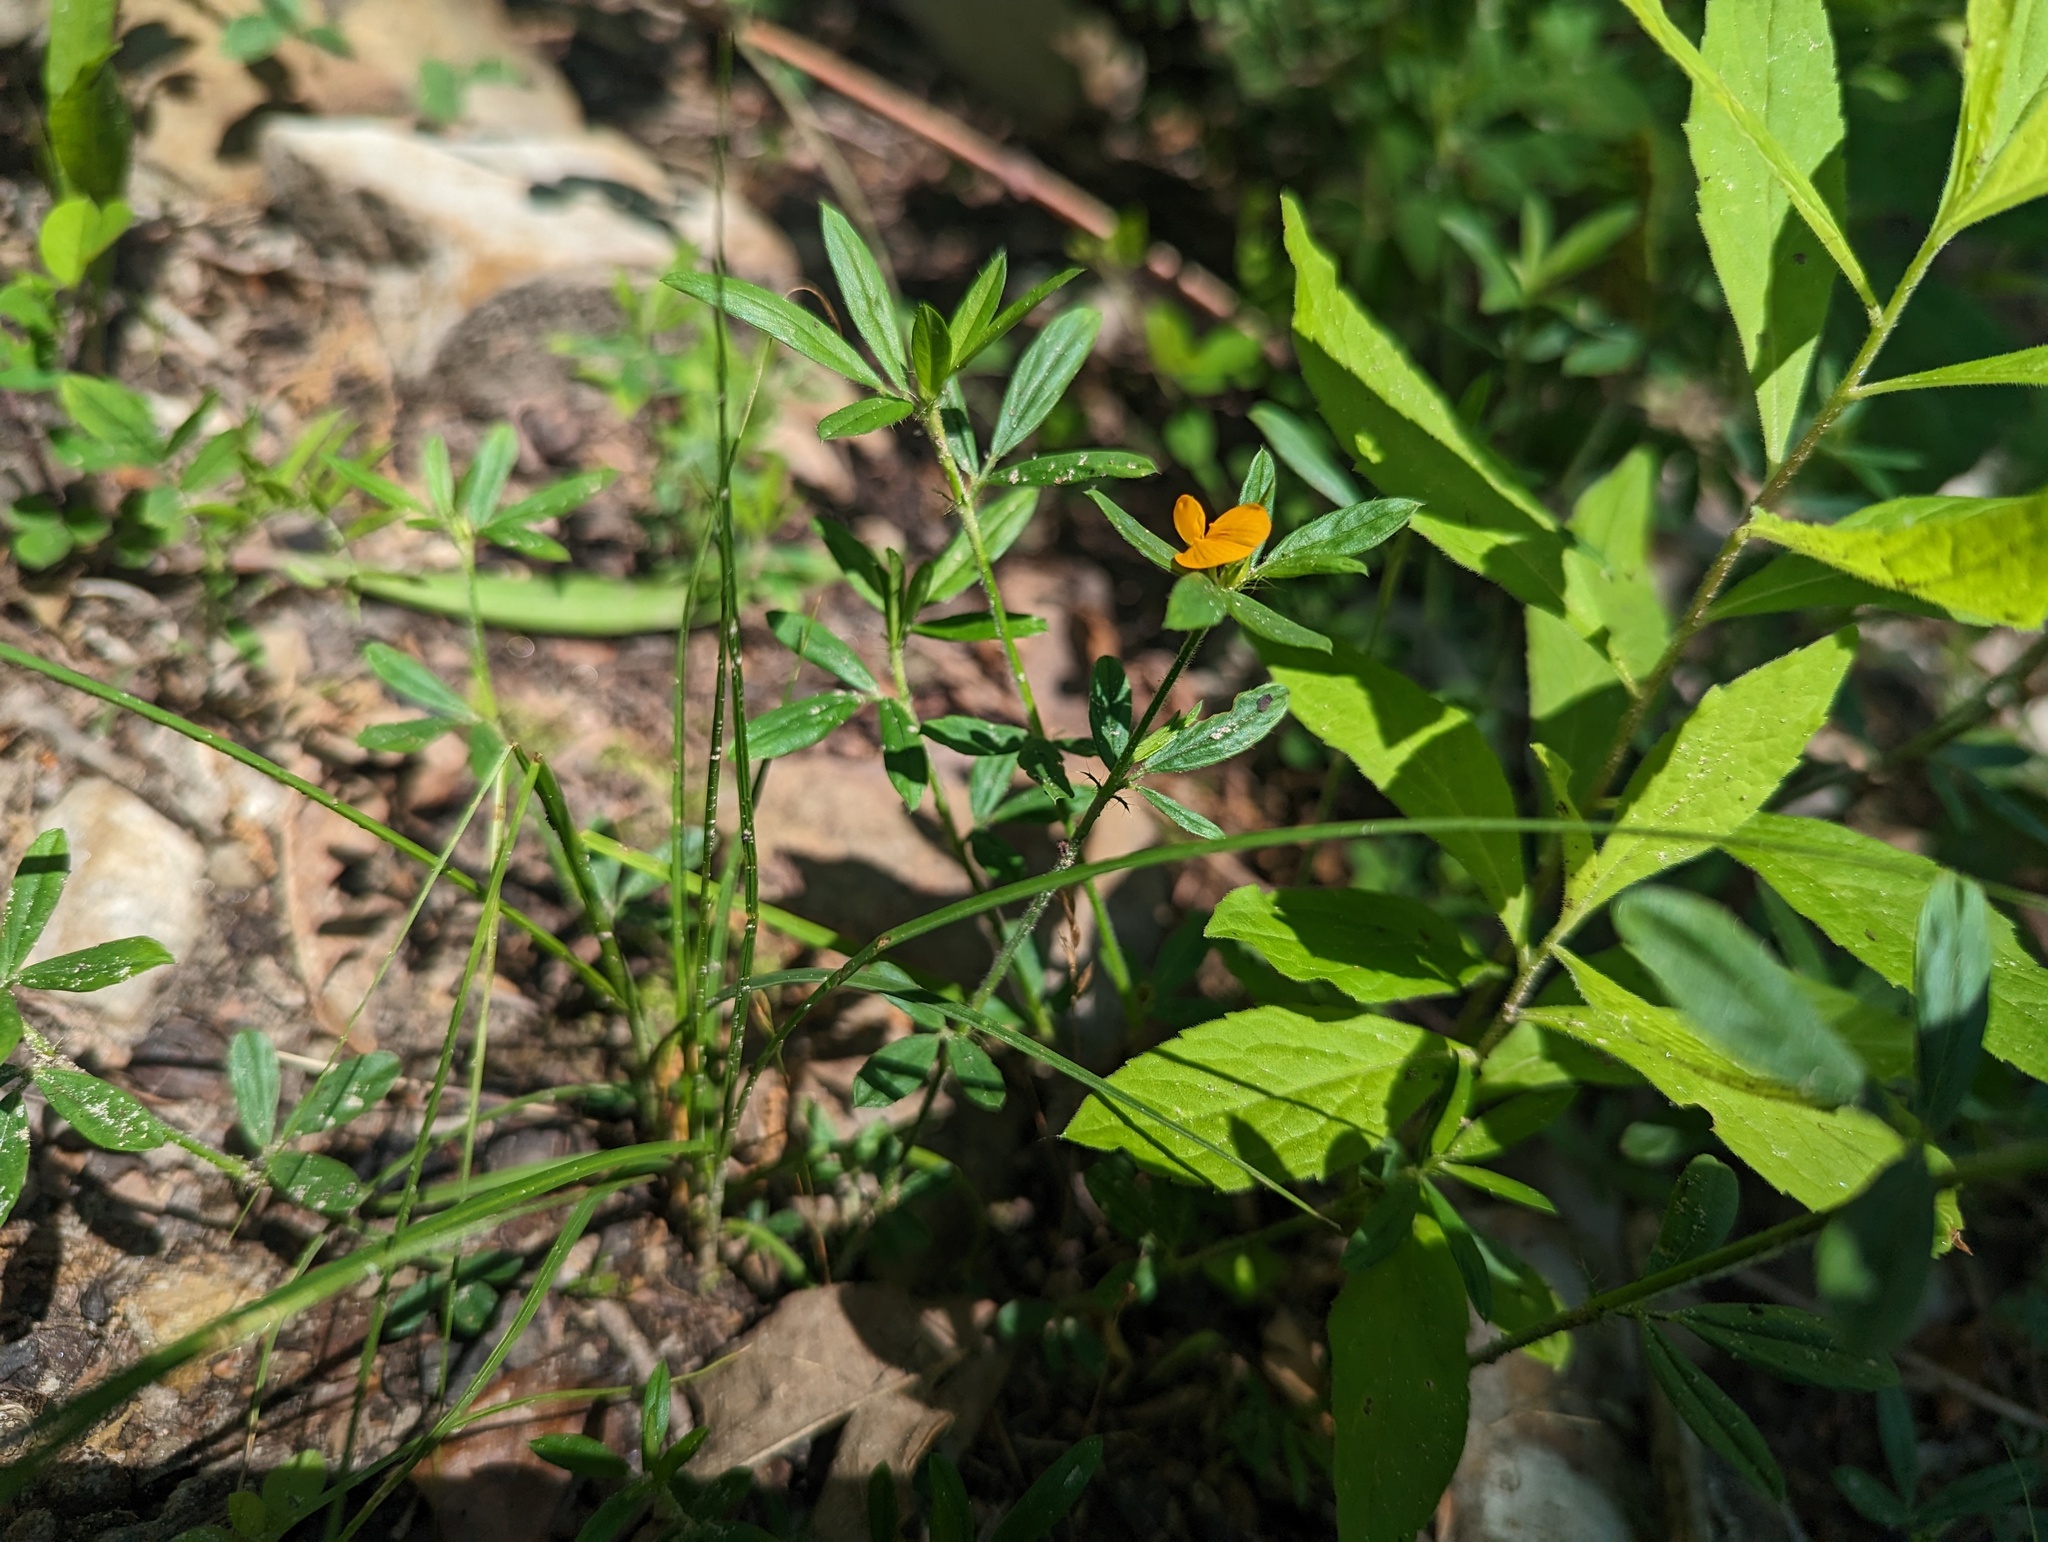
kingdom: Plantae
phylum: Tracheophyta
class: Magnoliopsida
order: Fabales
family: Fabaceae
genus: Stylosanthes
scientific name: Stylosanthes biflora
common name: Two-flower pencil-flower
